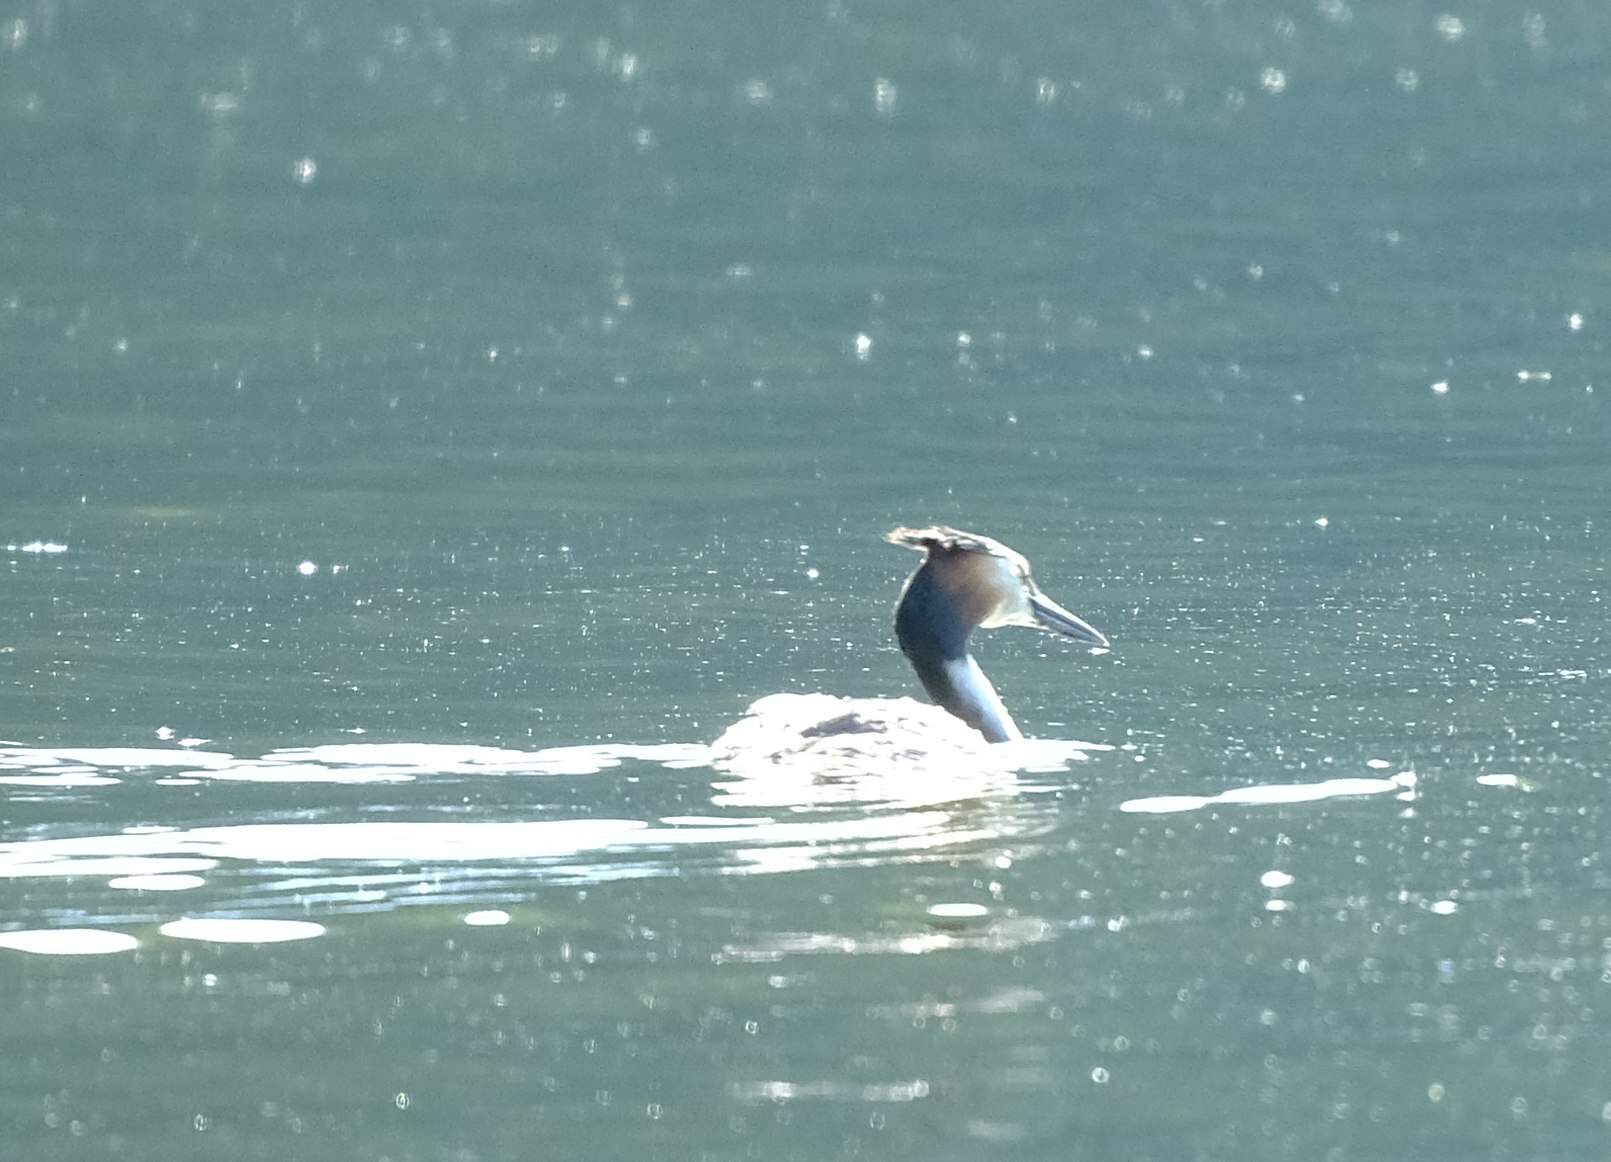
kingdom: Animalia
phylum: Chordata
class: Aves
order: Podicipediformes
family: Podicipedidae
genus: Podiceps
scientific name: Podiceps cristatus
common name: Great crested grebe
